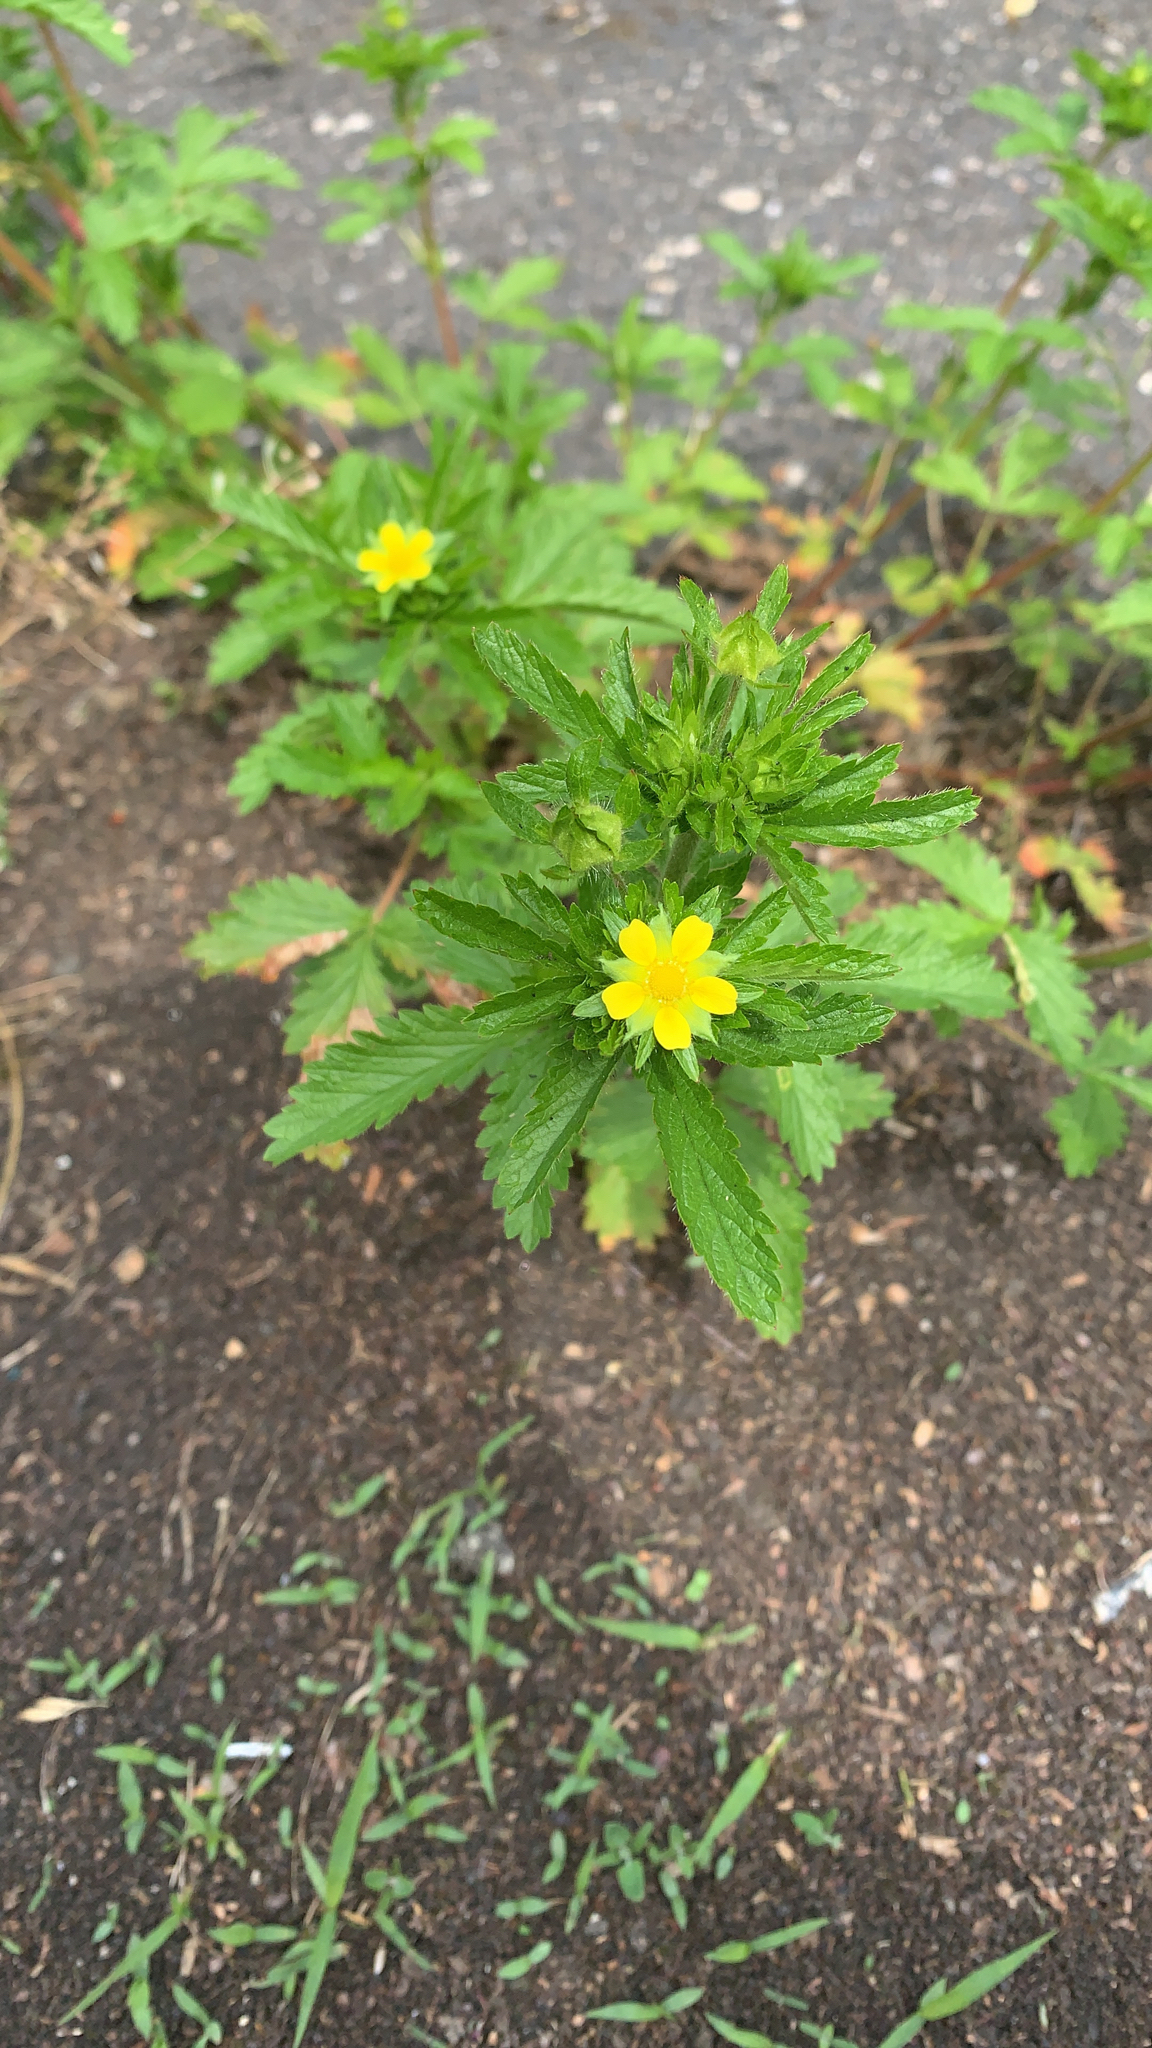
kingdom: Plantae
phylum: Tracheophyta
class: Magnoliopsida
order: Rosales
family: Rosaceae
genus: Potentilla
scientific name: Potentilla norvegica
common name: Ternate-leaved cinquefoil
